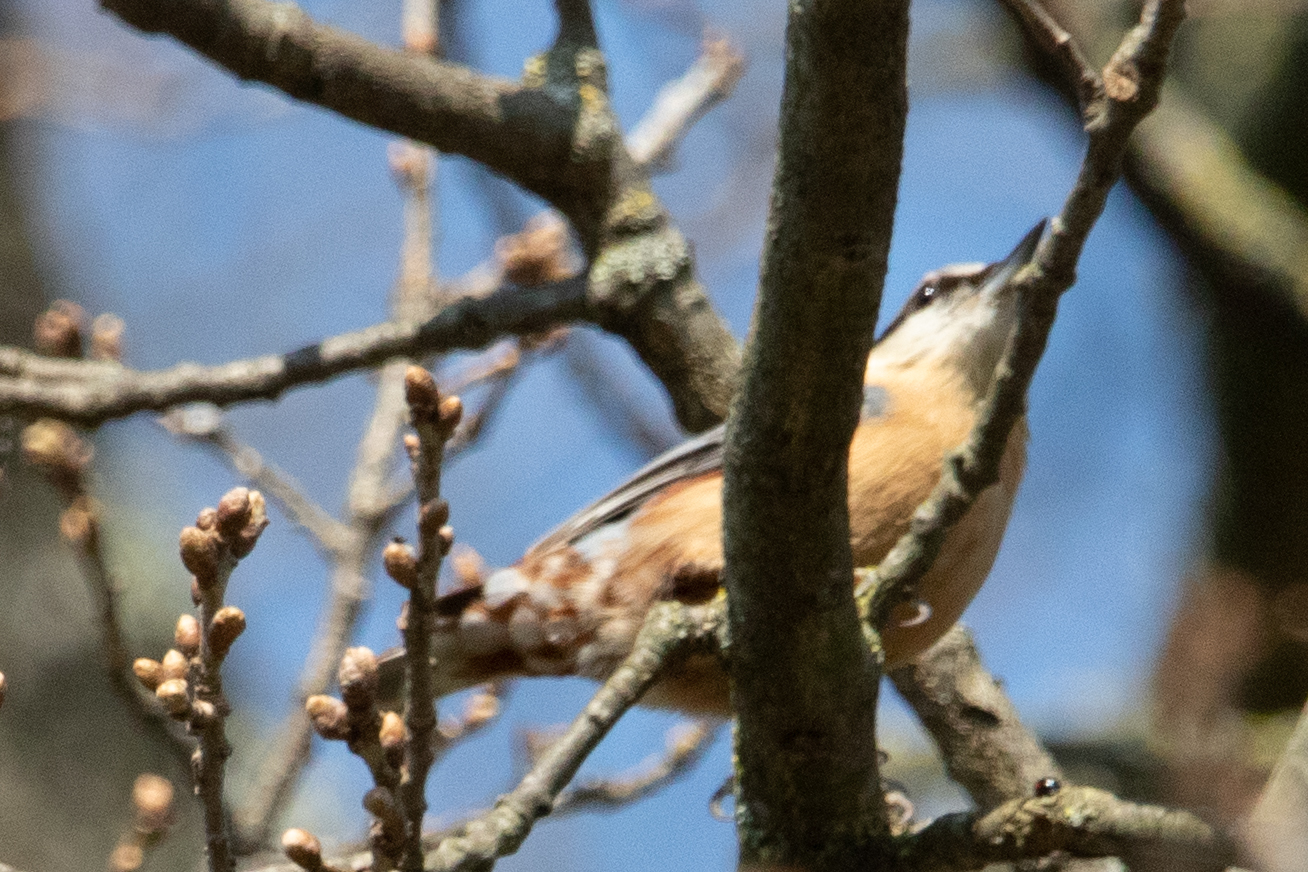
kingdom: Animalia
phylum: Chordata
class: Aves
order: Passeriformes
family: Sittidae
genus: Sitta
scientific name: Sitta europaea
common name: Eurasian nuthatch
